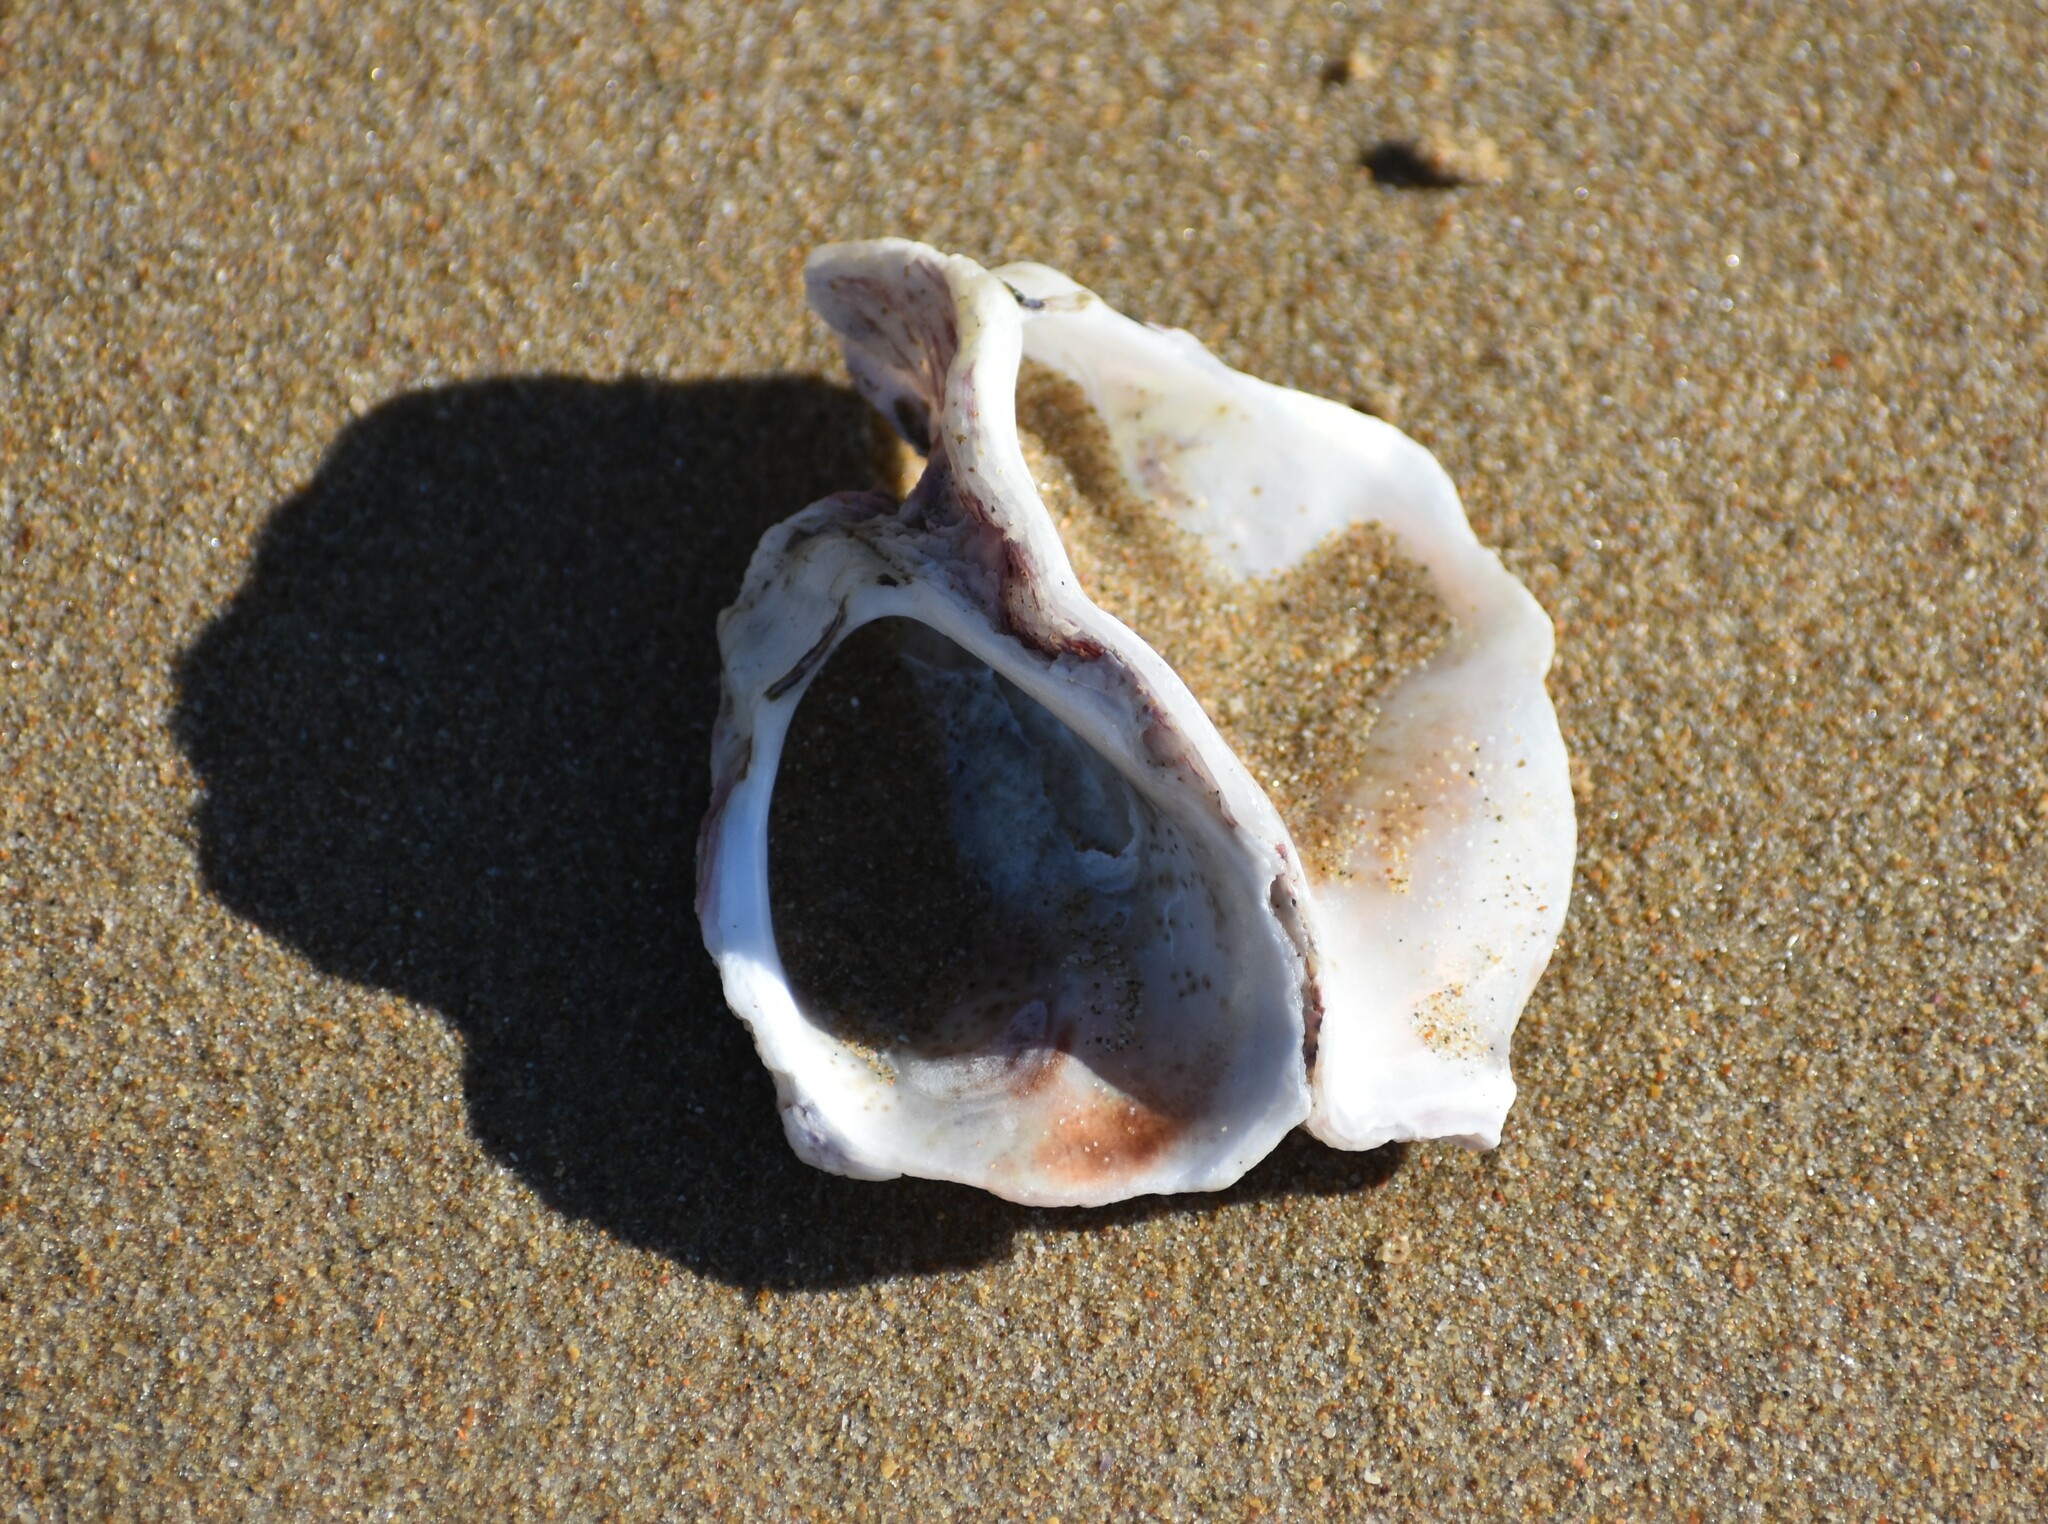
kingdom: Animalia
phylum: Mollusca
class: Bivalvia
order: Ostreida
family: Ostreidae
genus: Striostrea
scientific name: Striostrea margaritacea
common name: Cape rock oyster
